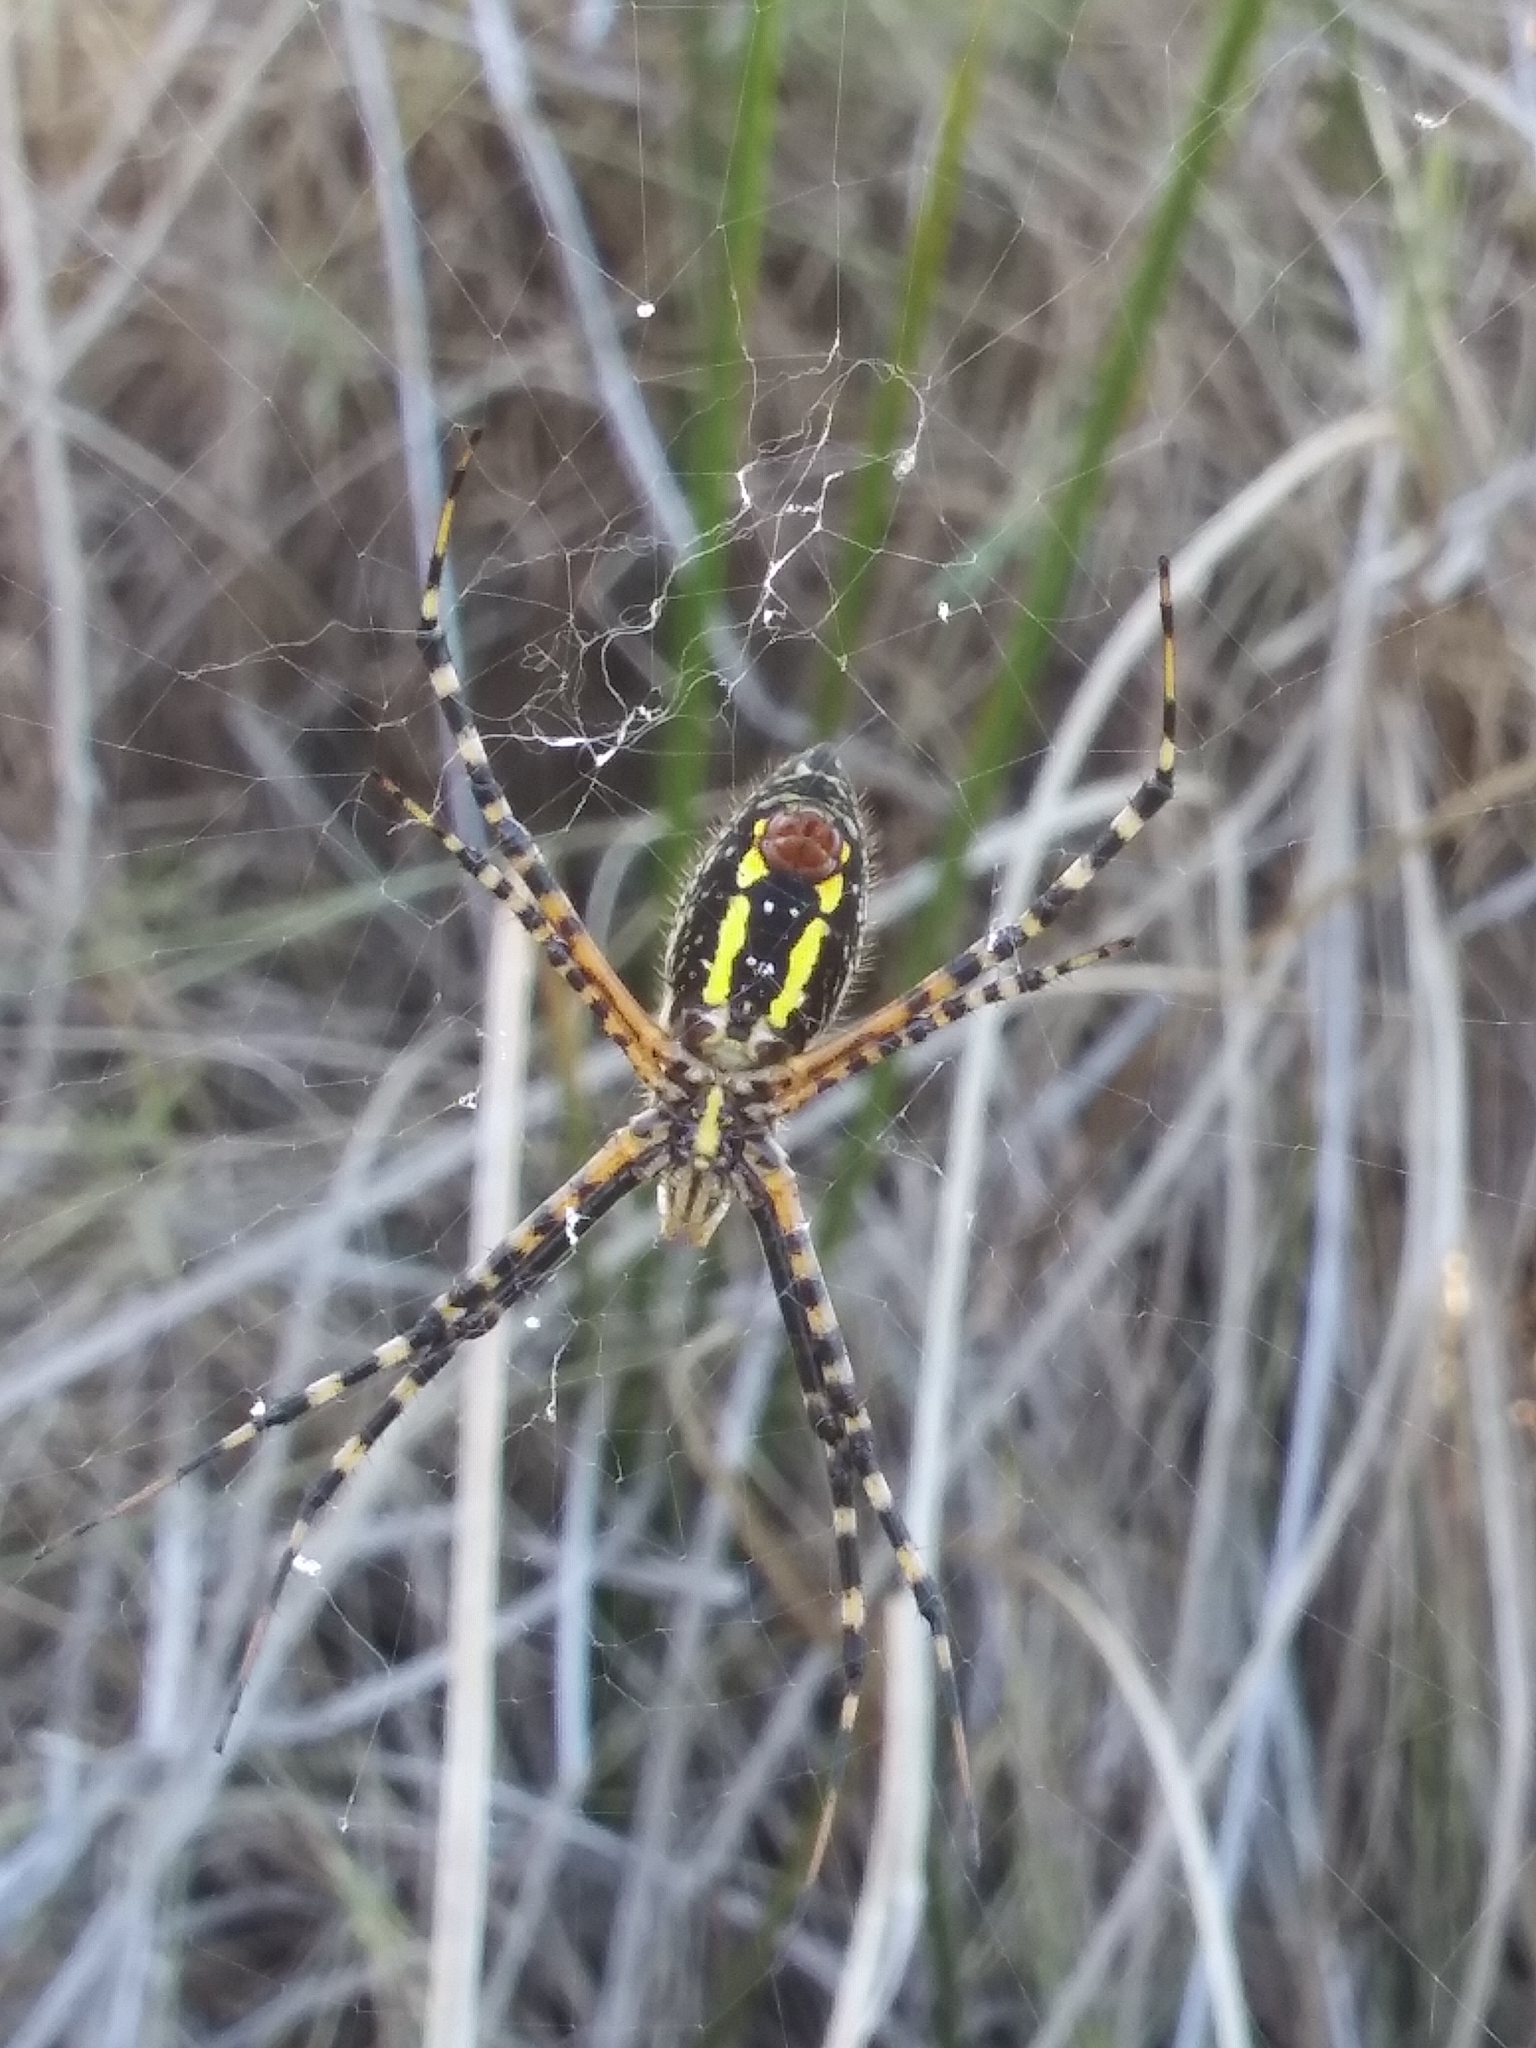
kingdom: Animalia
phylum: Arthropoda
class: Arachnida
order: Araneae
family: Araneidae
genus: Argiope
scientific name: Argiope trifasciata
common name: Banded garden spider
